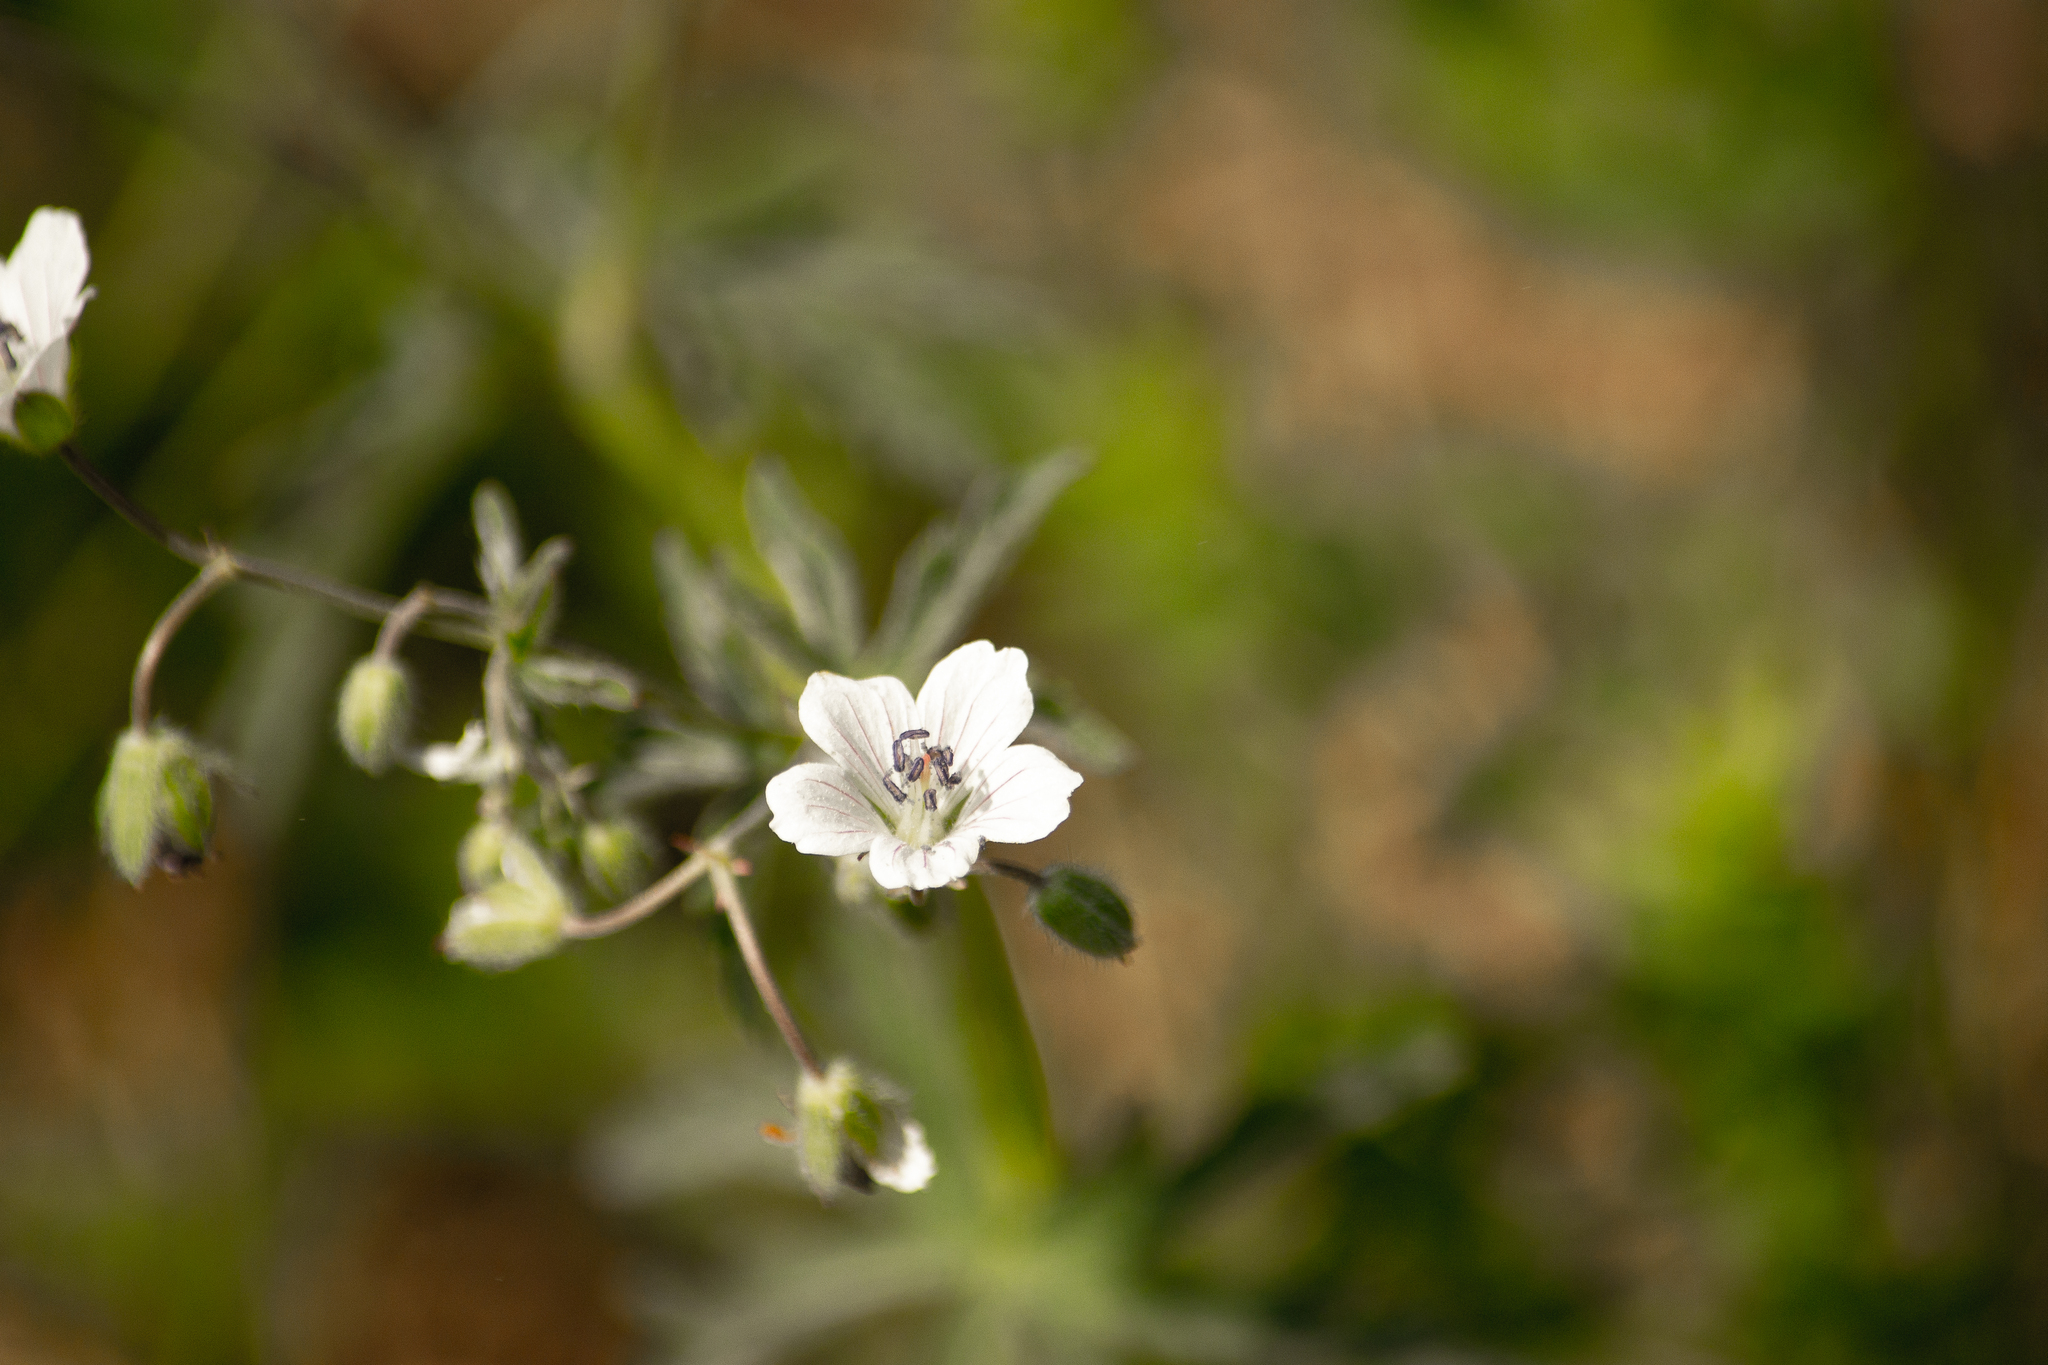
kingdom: Plantae
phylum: Tracheophyta
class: Magnoliopsida
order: Geraniales
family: Geraniaceae
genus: Geranium
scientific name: Geranium pseudosibiricum
